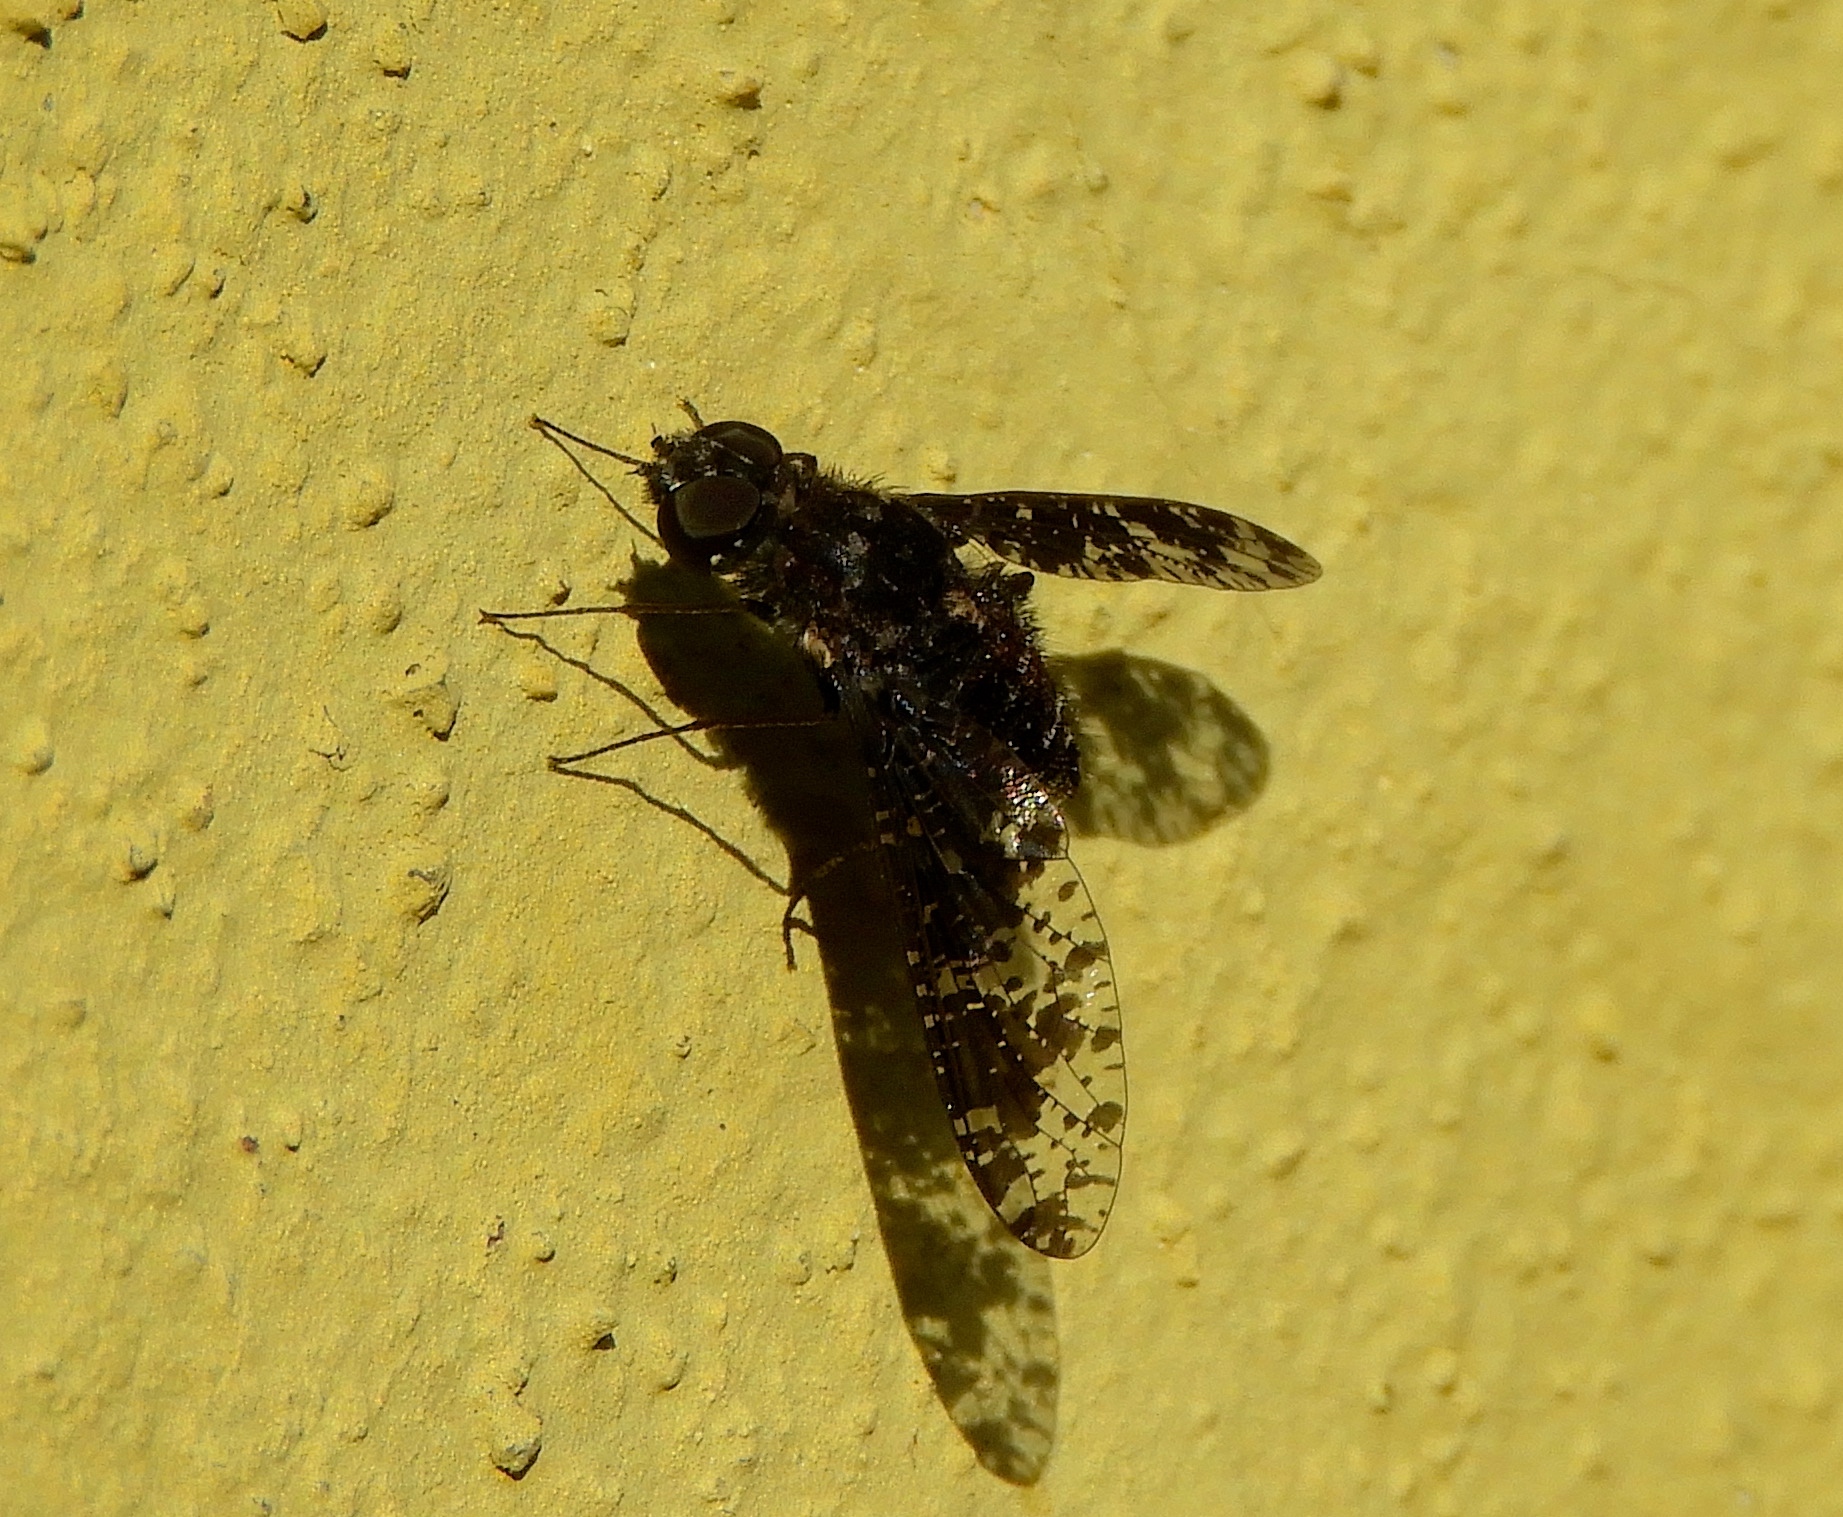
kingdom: Animalia
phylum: Arthropoda
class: Insecta
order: Diptera
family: Bombyliidae
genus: Anthrax
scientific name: Anthrax
